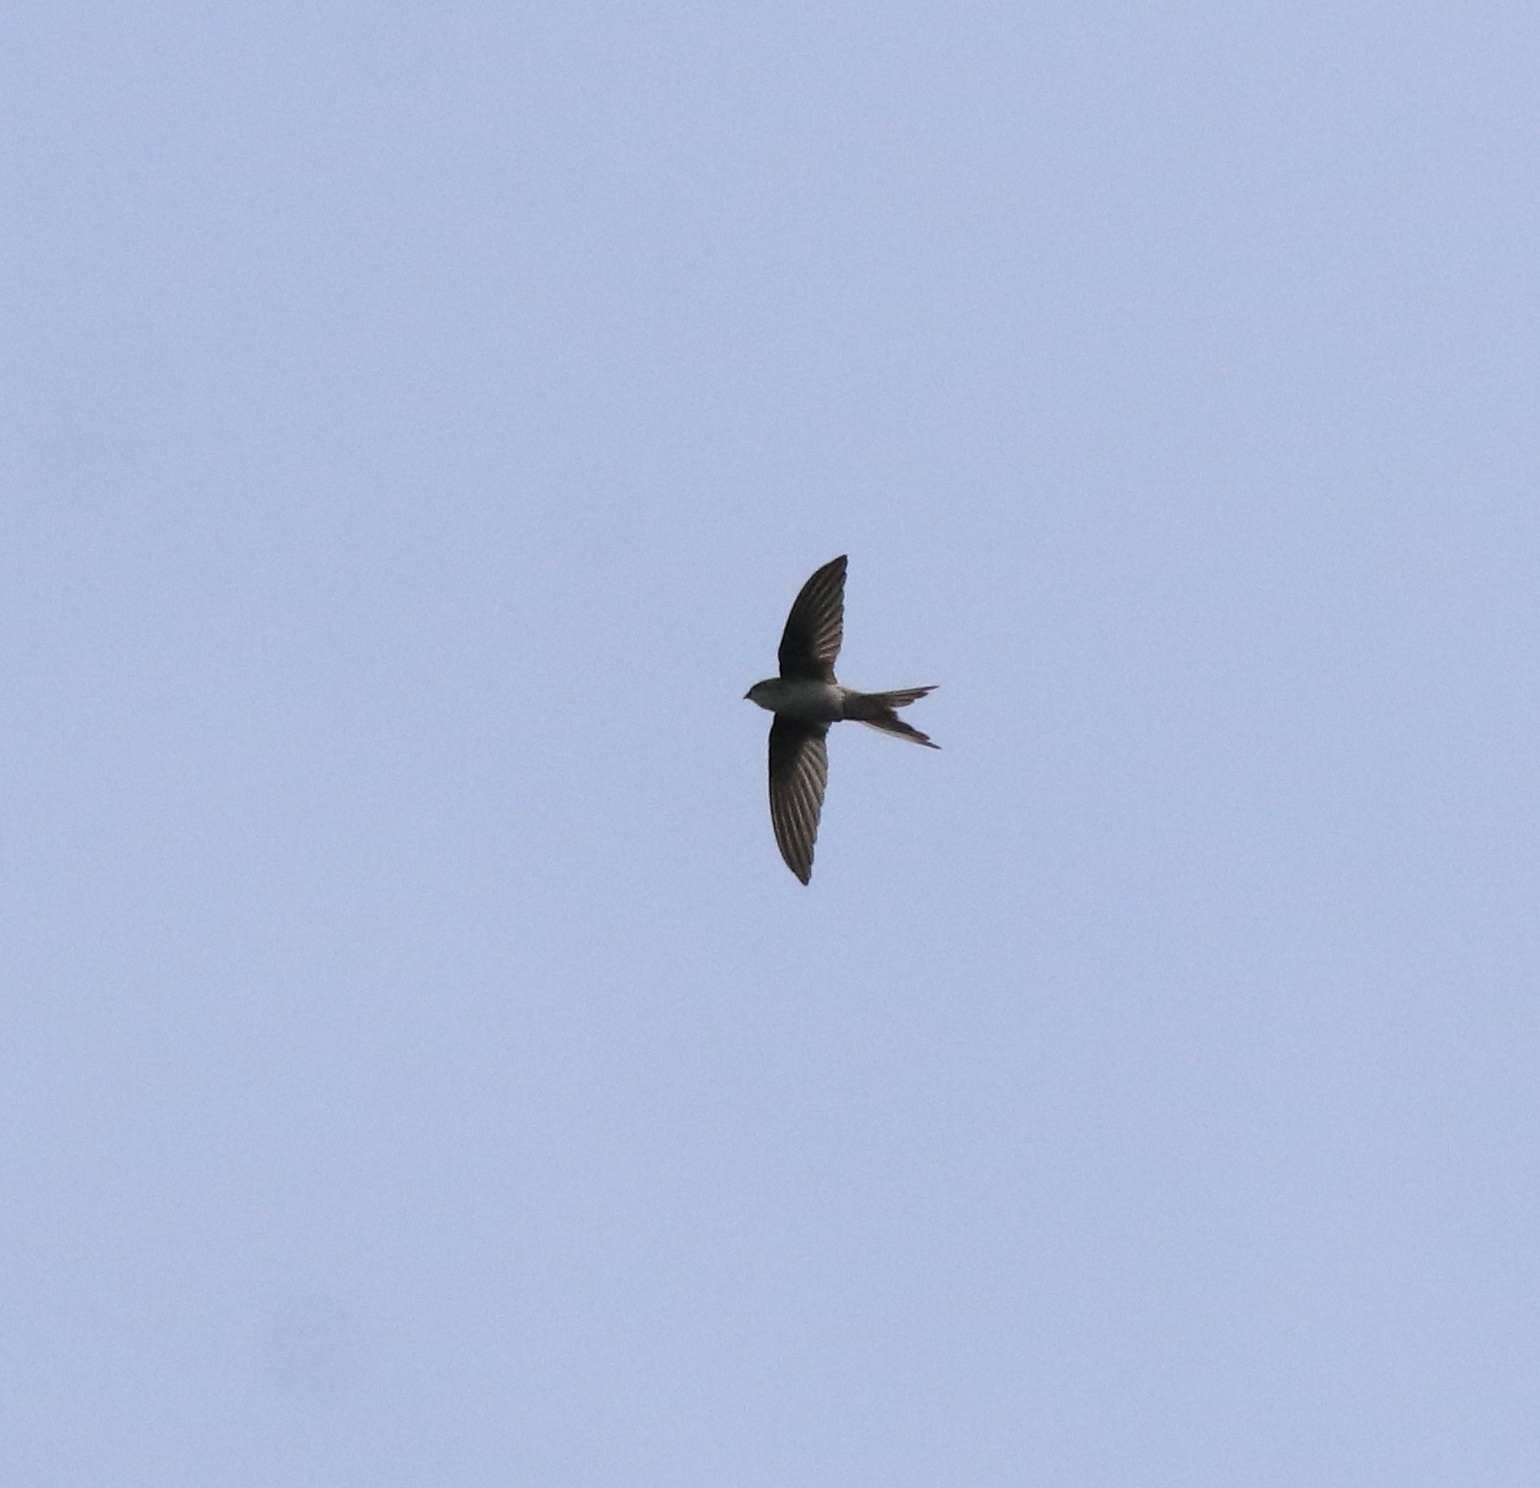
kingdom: Animalia
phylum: Chordata
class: Aves
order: Apodiformes
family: Apodidae
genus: Cypsiurus
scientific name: Cypsiurus balasiensis
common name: Asian palm swift
